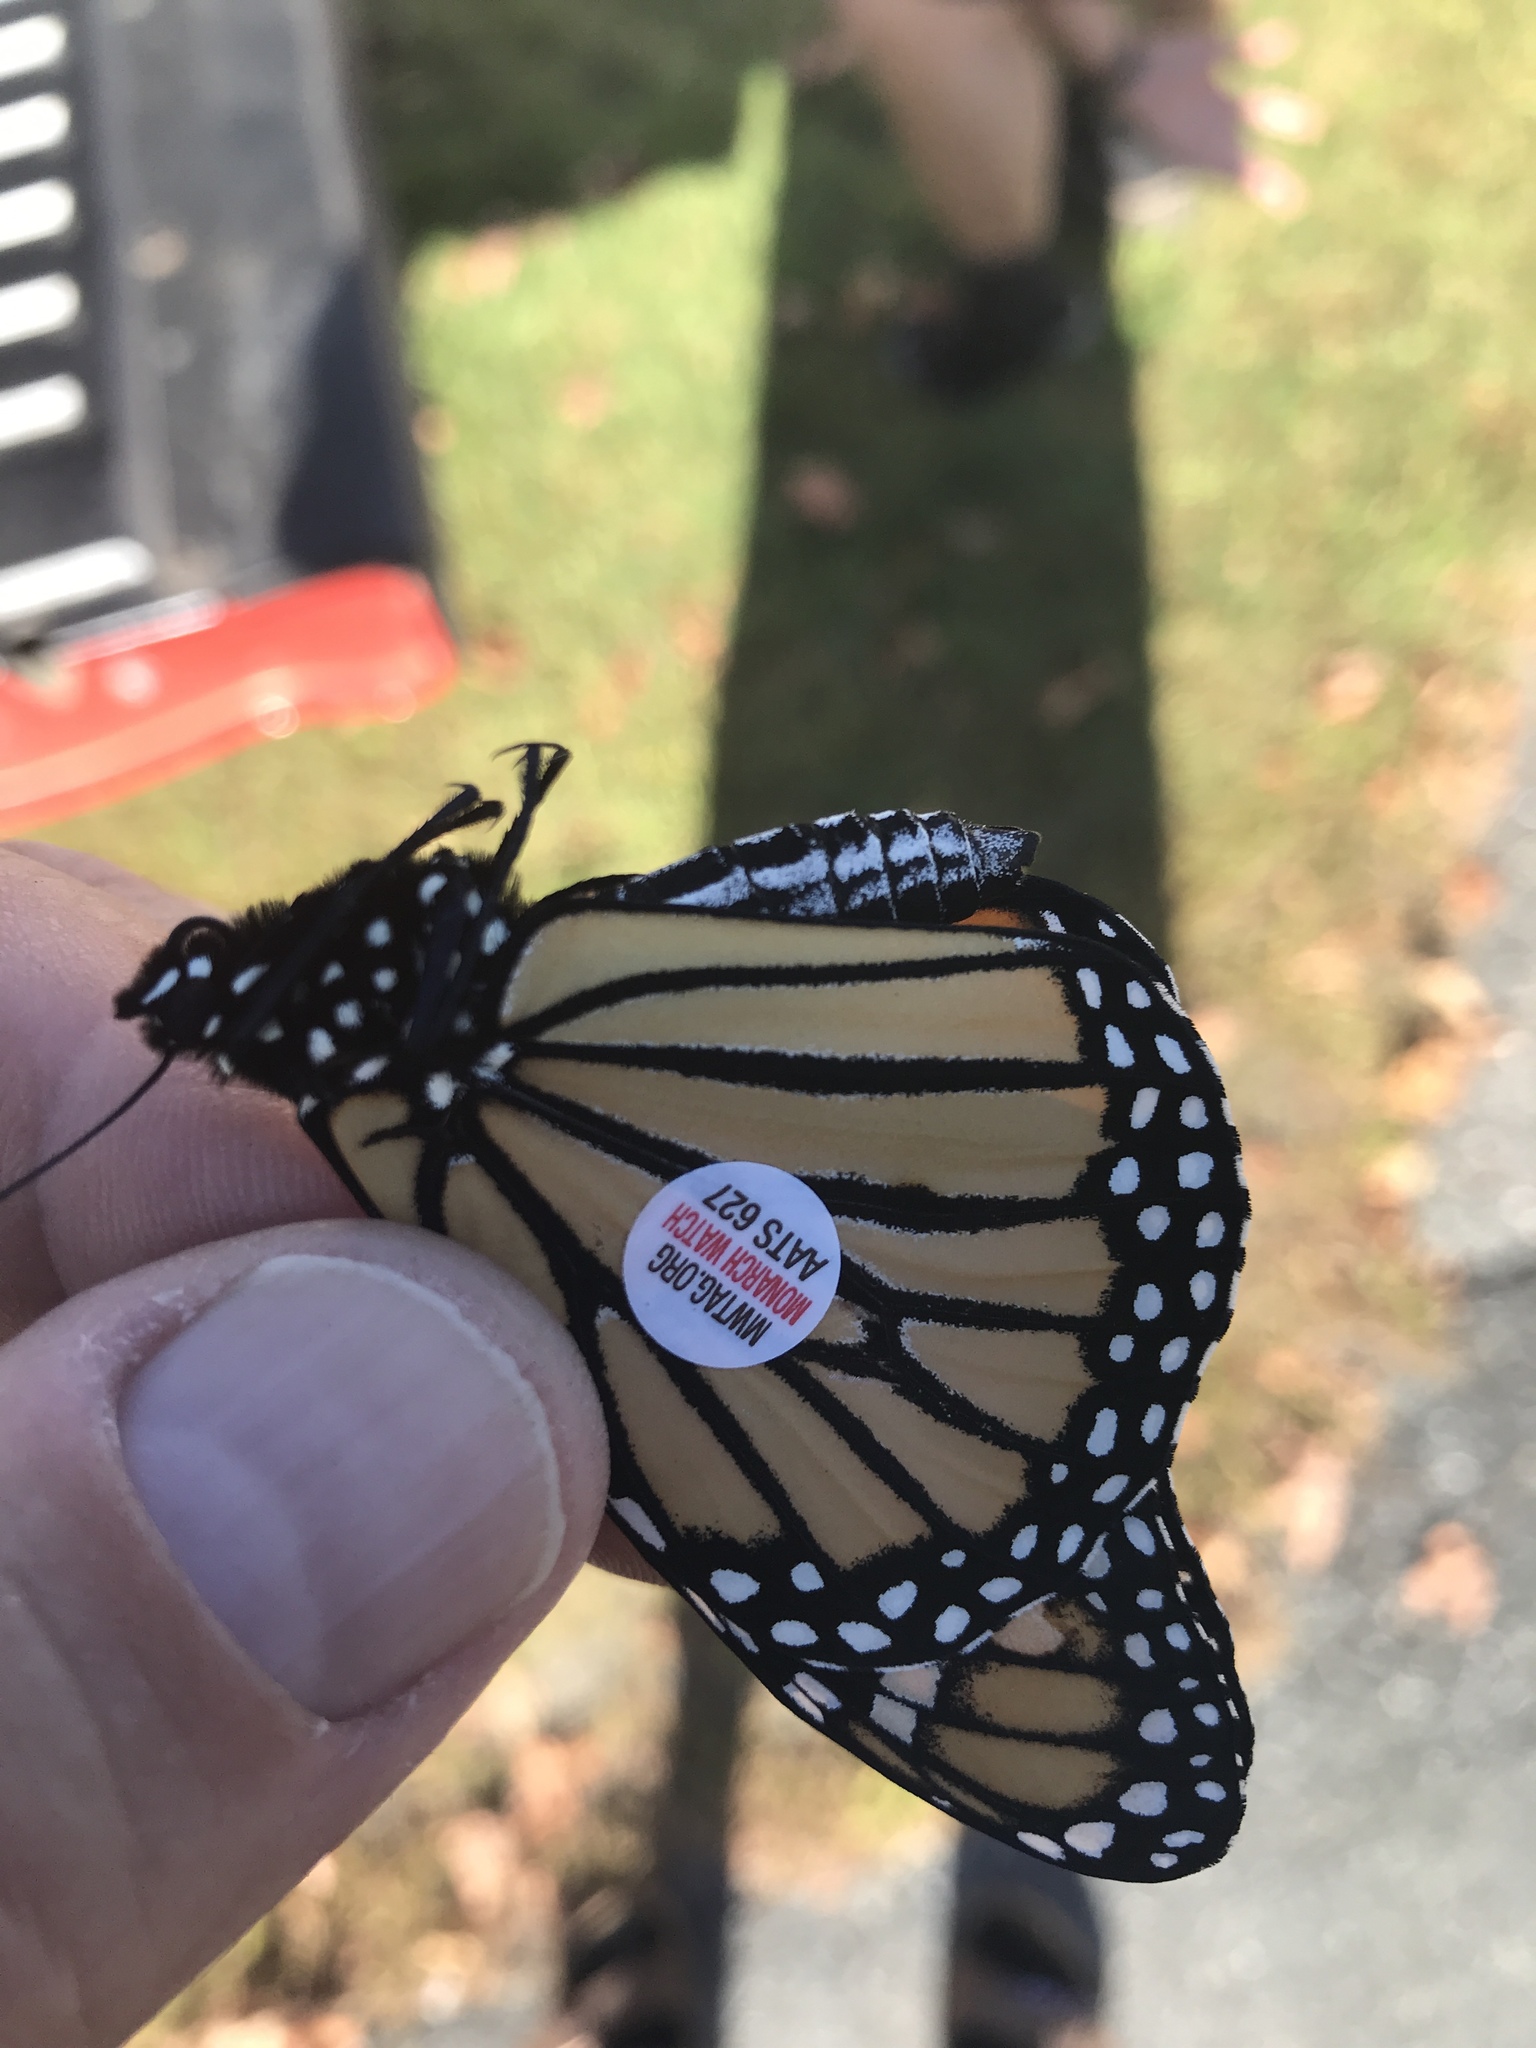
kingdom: Animalia
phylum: Arthropoda
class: Insecta
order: Lepidoptera
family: Nymphalidae
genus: Danaus
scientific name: Danaus plexippus
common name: Monarch
